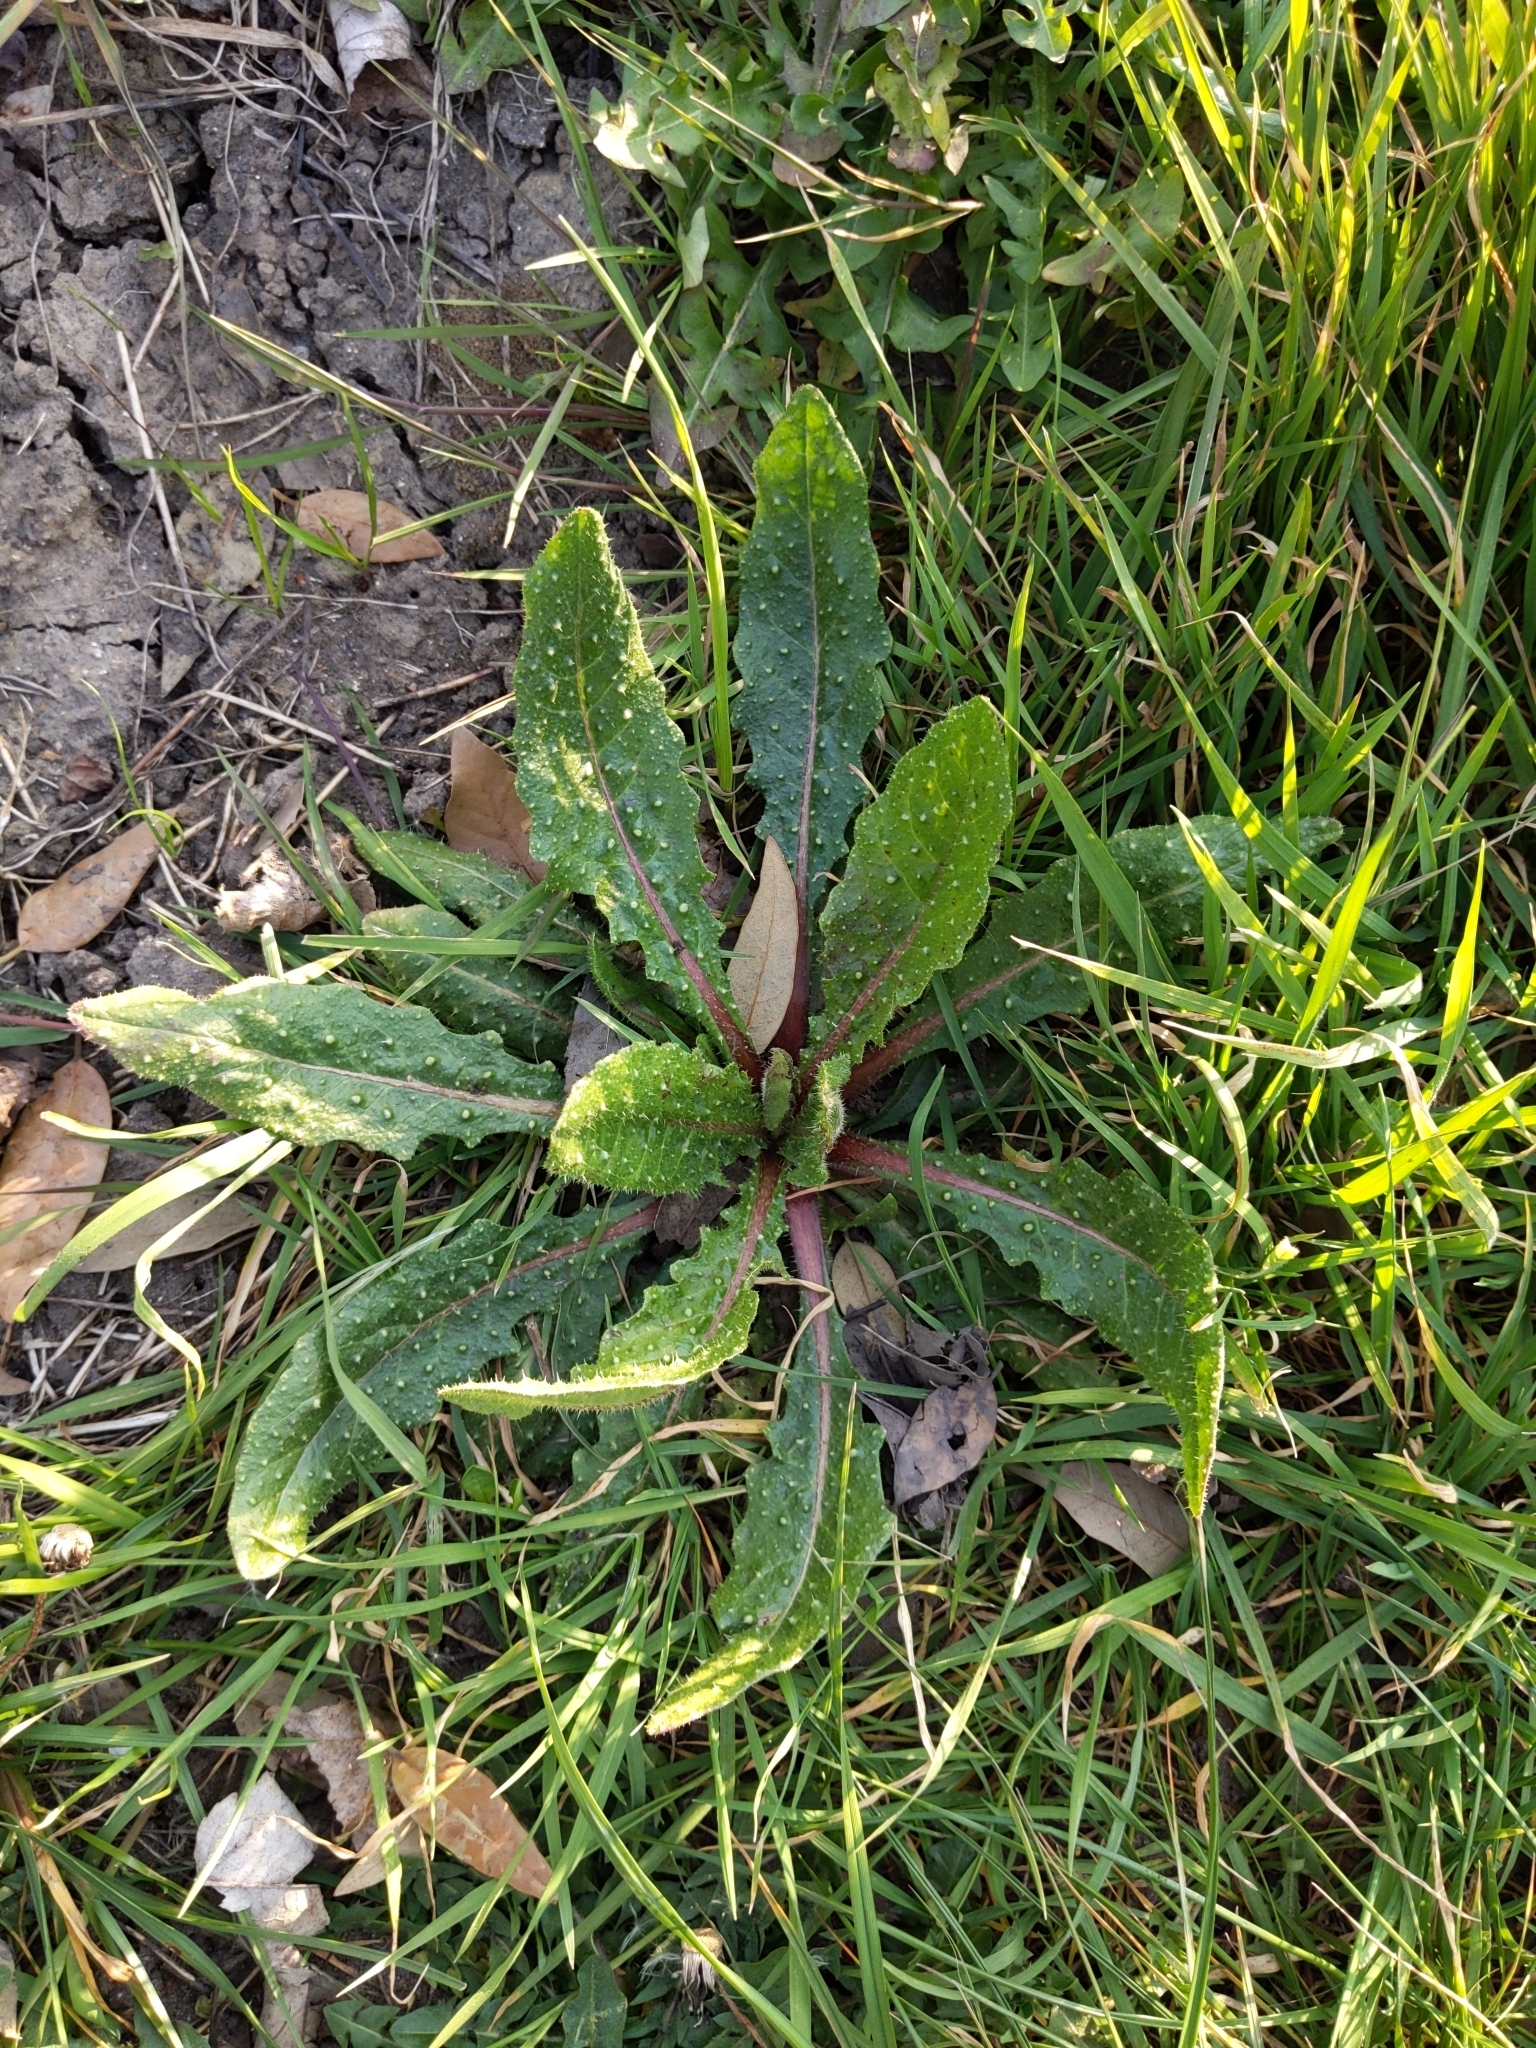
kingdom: Plantae
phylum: Tracheophyta
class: Magnoliopsida
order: Asterales
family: Asteraceae
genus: Helminthotheca
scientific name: Helminthotheca echioides
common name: Ox-tongue
